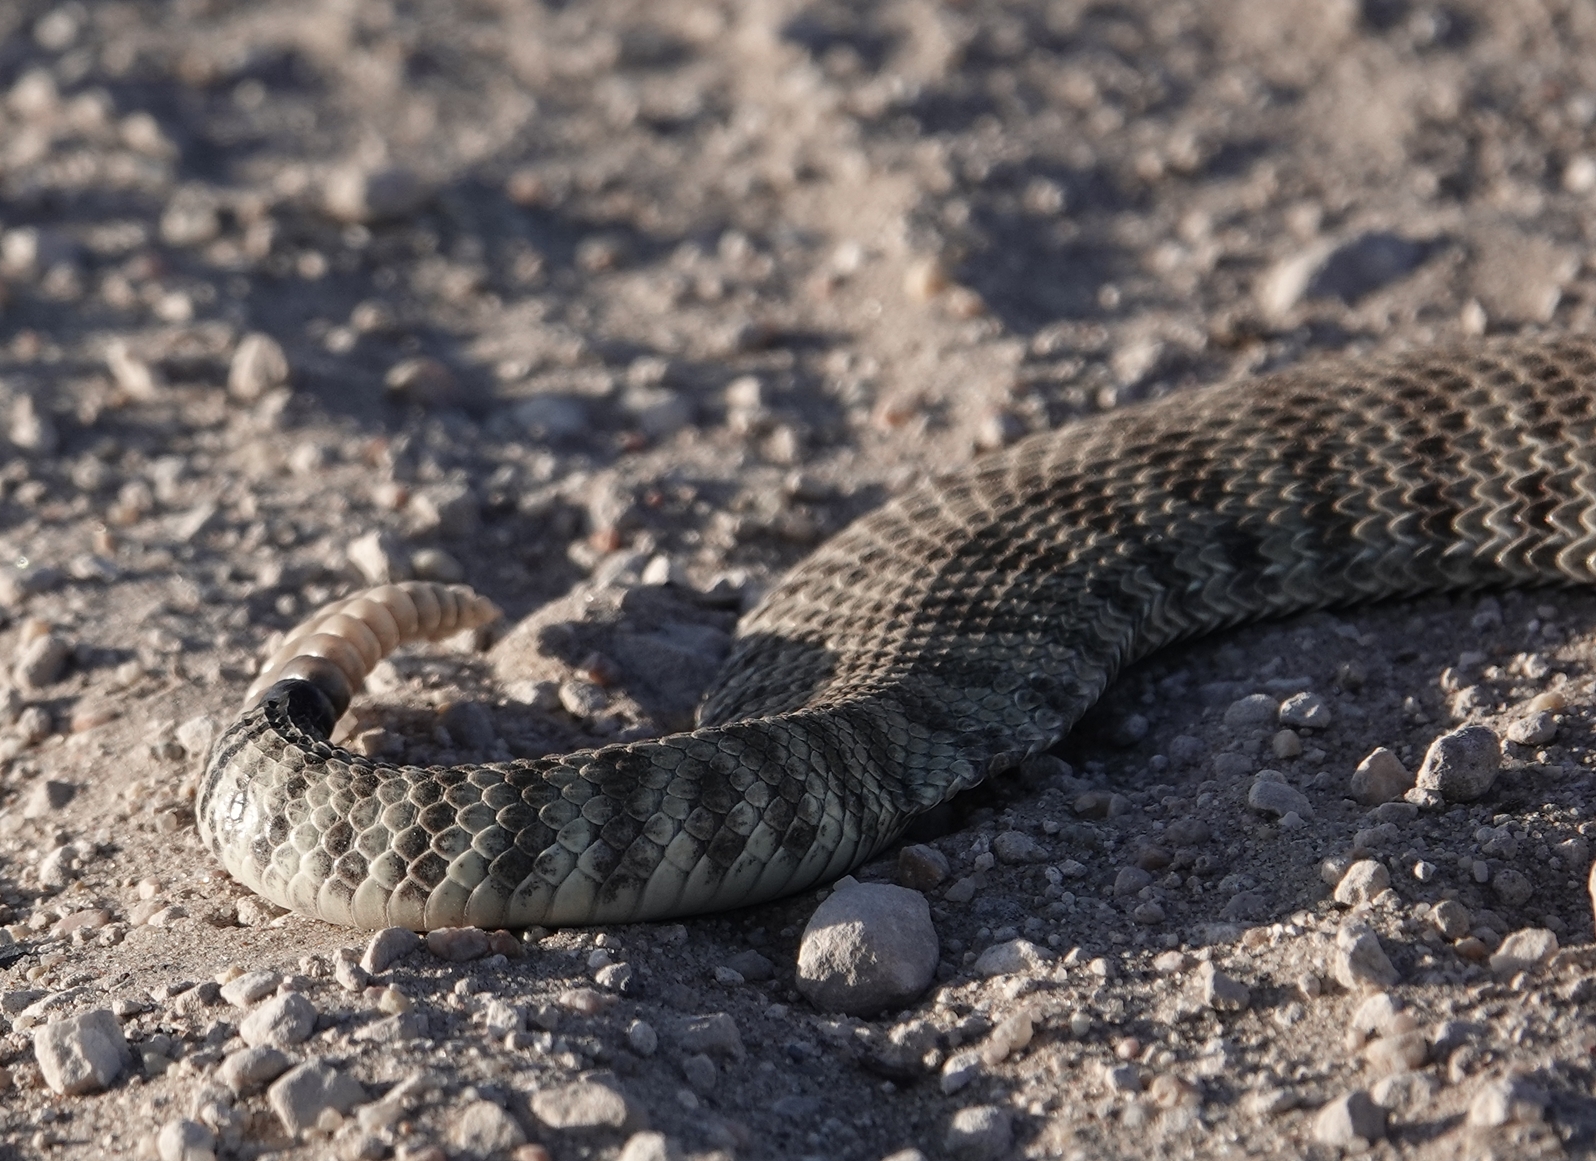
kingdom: Animalia
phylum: Chordata
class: Squamata
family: Viperidae
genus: Crotalus
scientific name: Crotalus viridis
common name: Prairie rattlesnake
